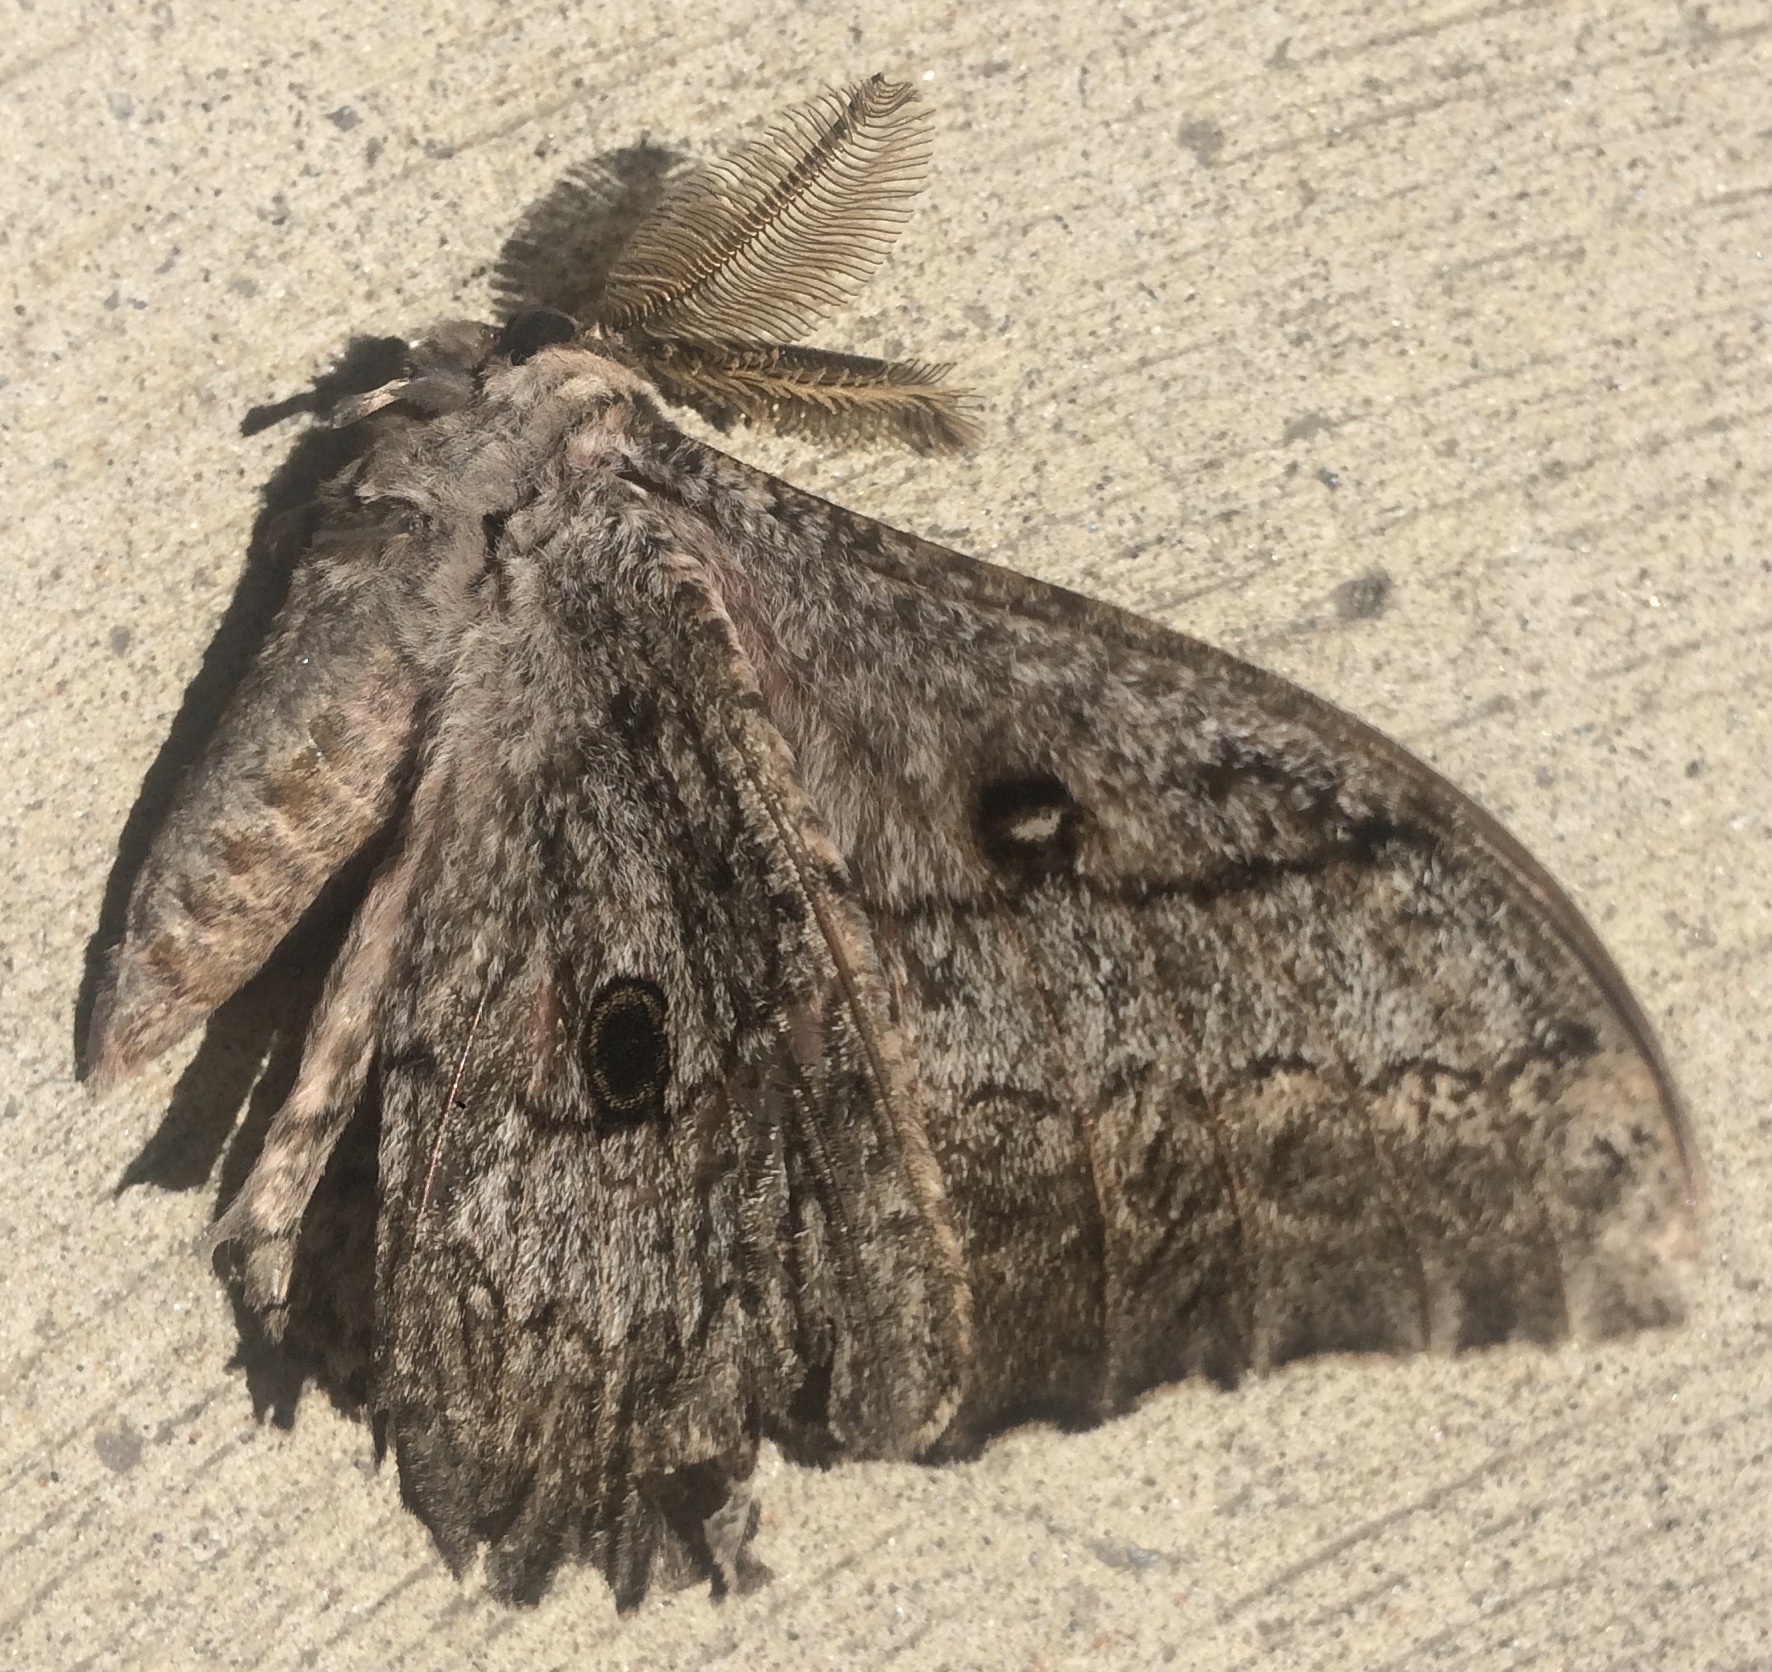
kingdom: Animalia
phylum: Arthropoda
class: Insecta
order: Lepidoptera
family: Saturniidae
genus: Gynanisa
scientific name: Gynanisa maja
